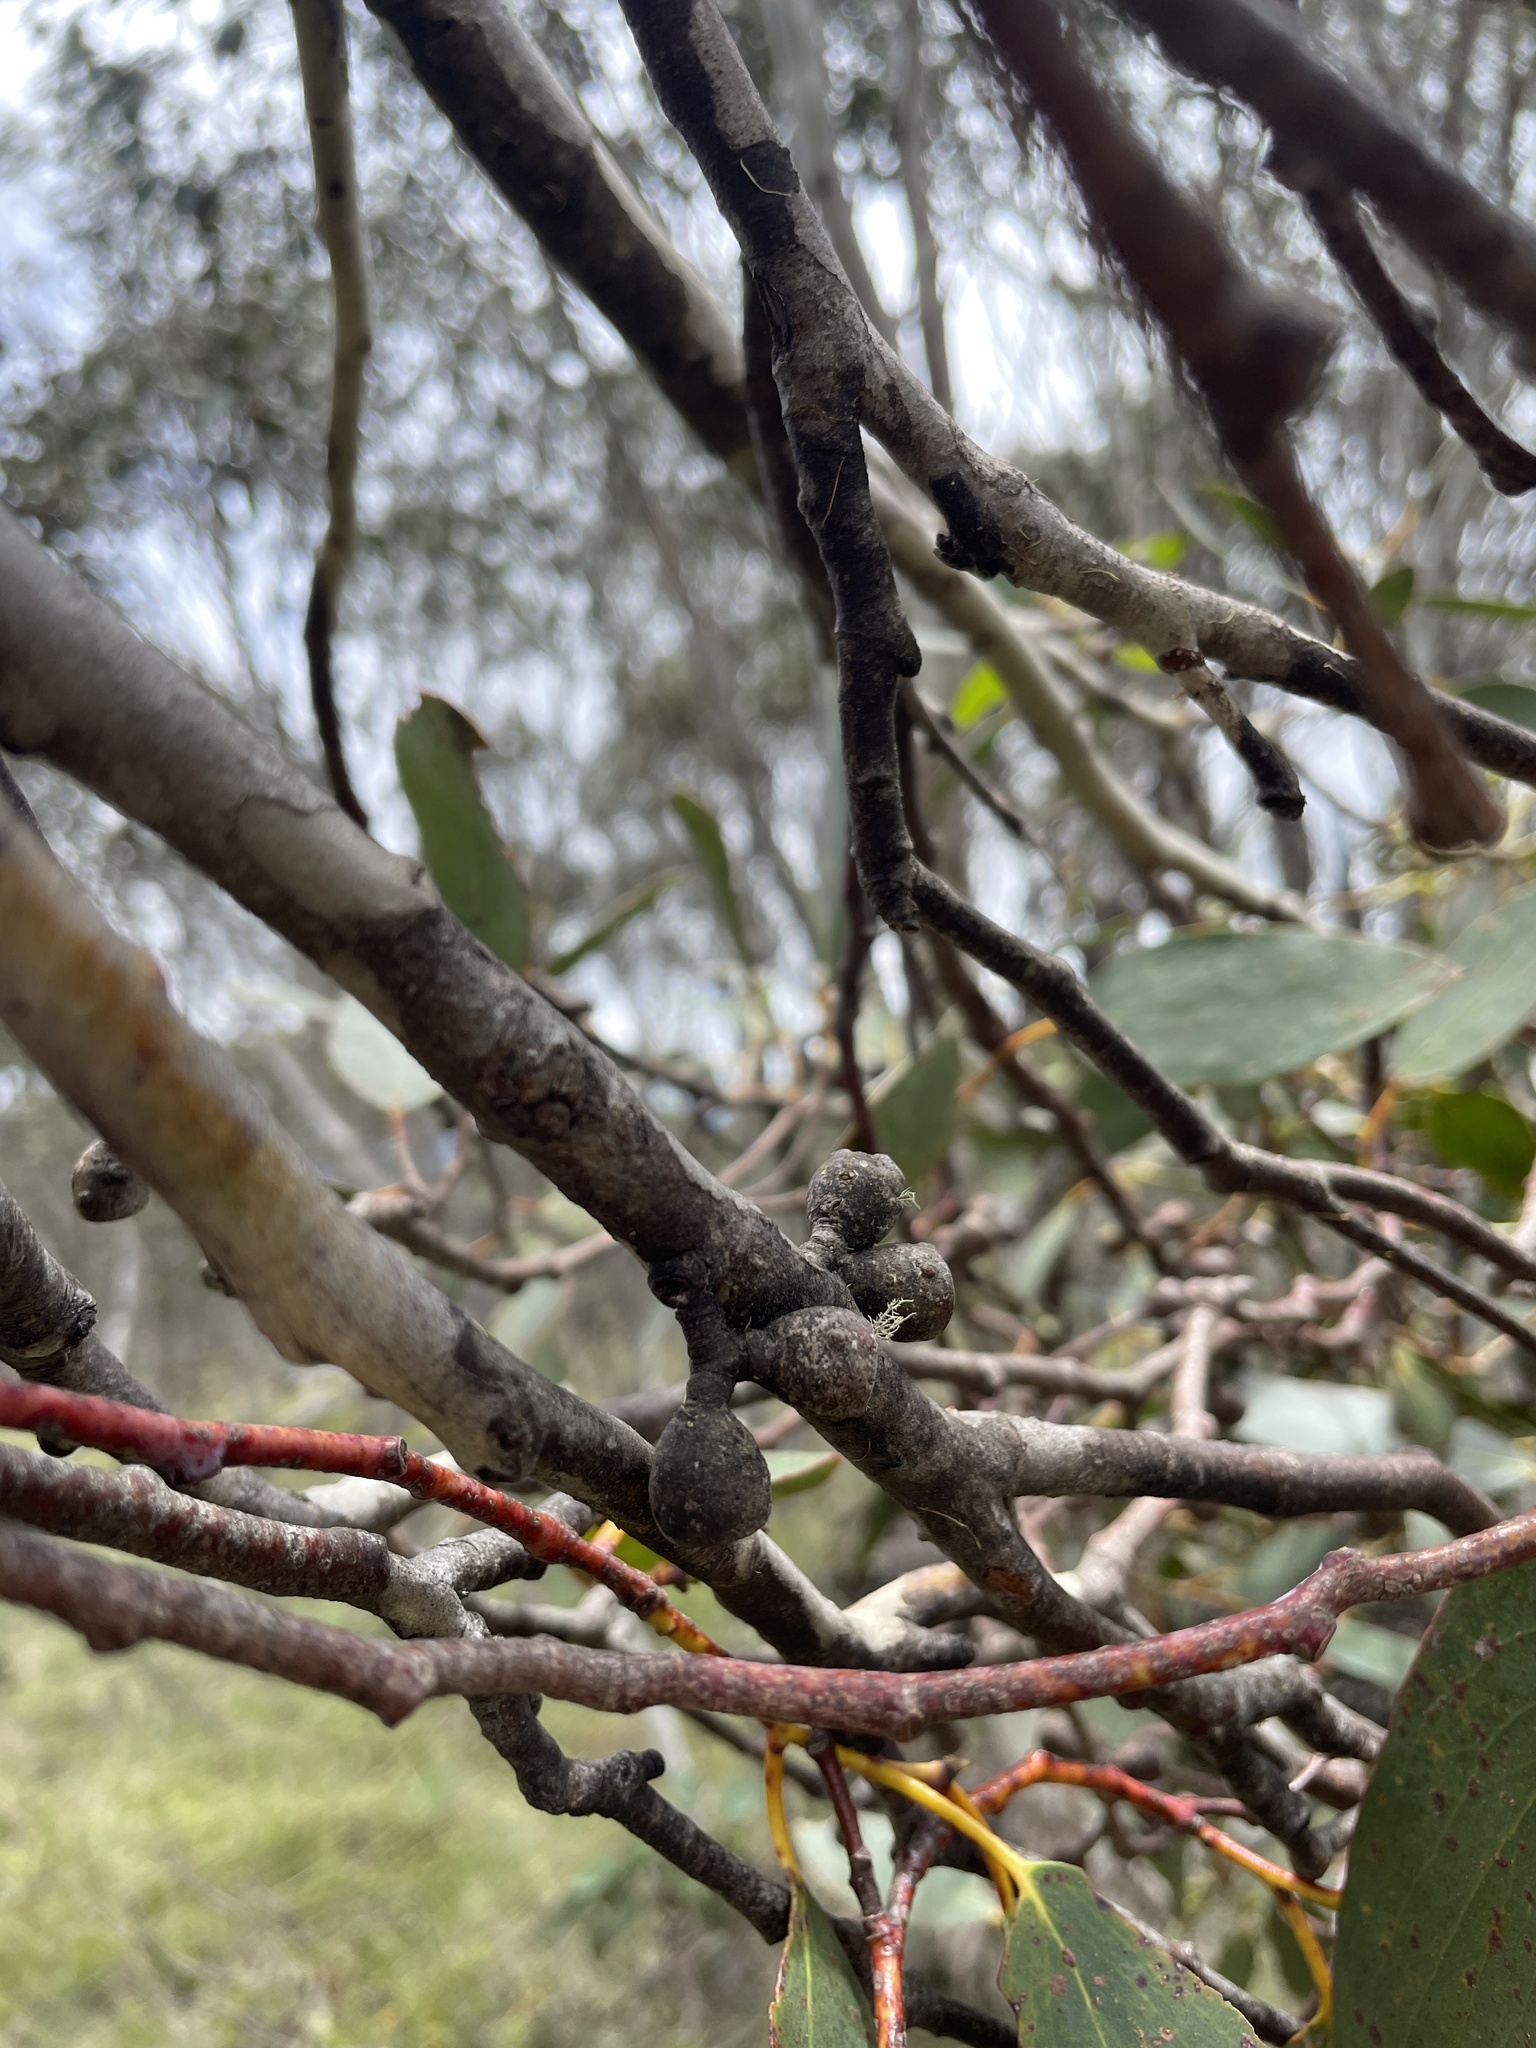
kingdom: Plantae
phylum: Tracheophyta
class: Magnoliopsida
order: Myrtales
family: Myrtaceae
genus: Eucalyptus
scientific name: Eucalyptus pauciflora
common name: Snow gum
